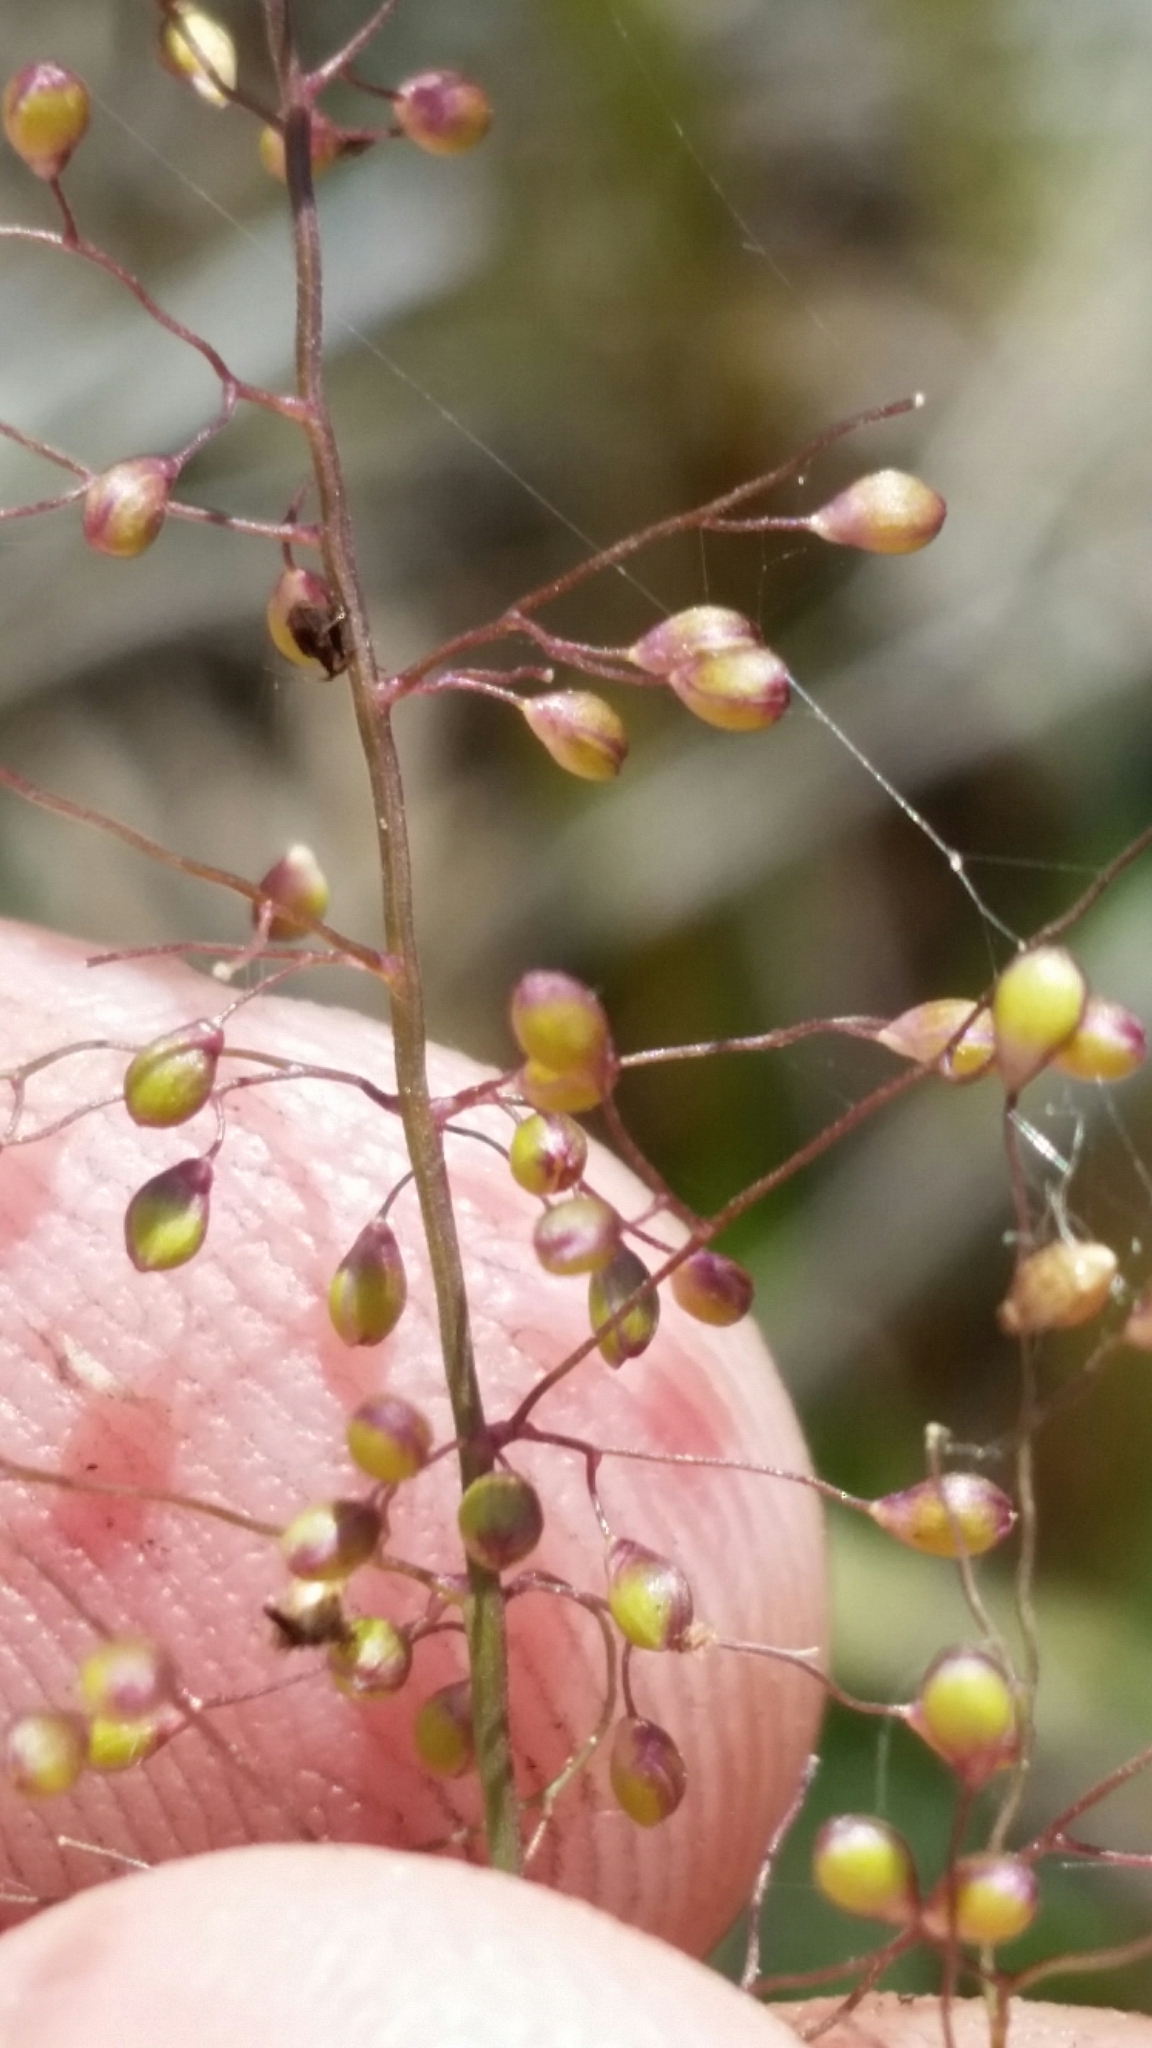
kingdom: Plantae
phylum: Tracheophyta
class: Liliopsida
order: Poales
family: Poaceae
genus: Dichanthelium
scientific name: Dichanthelium caerulescens
